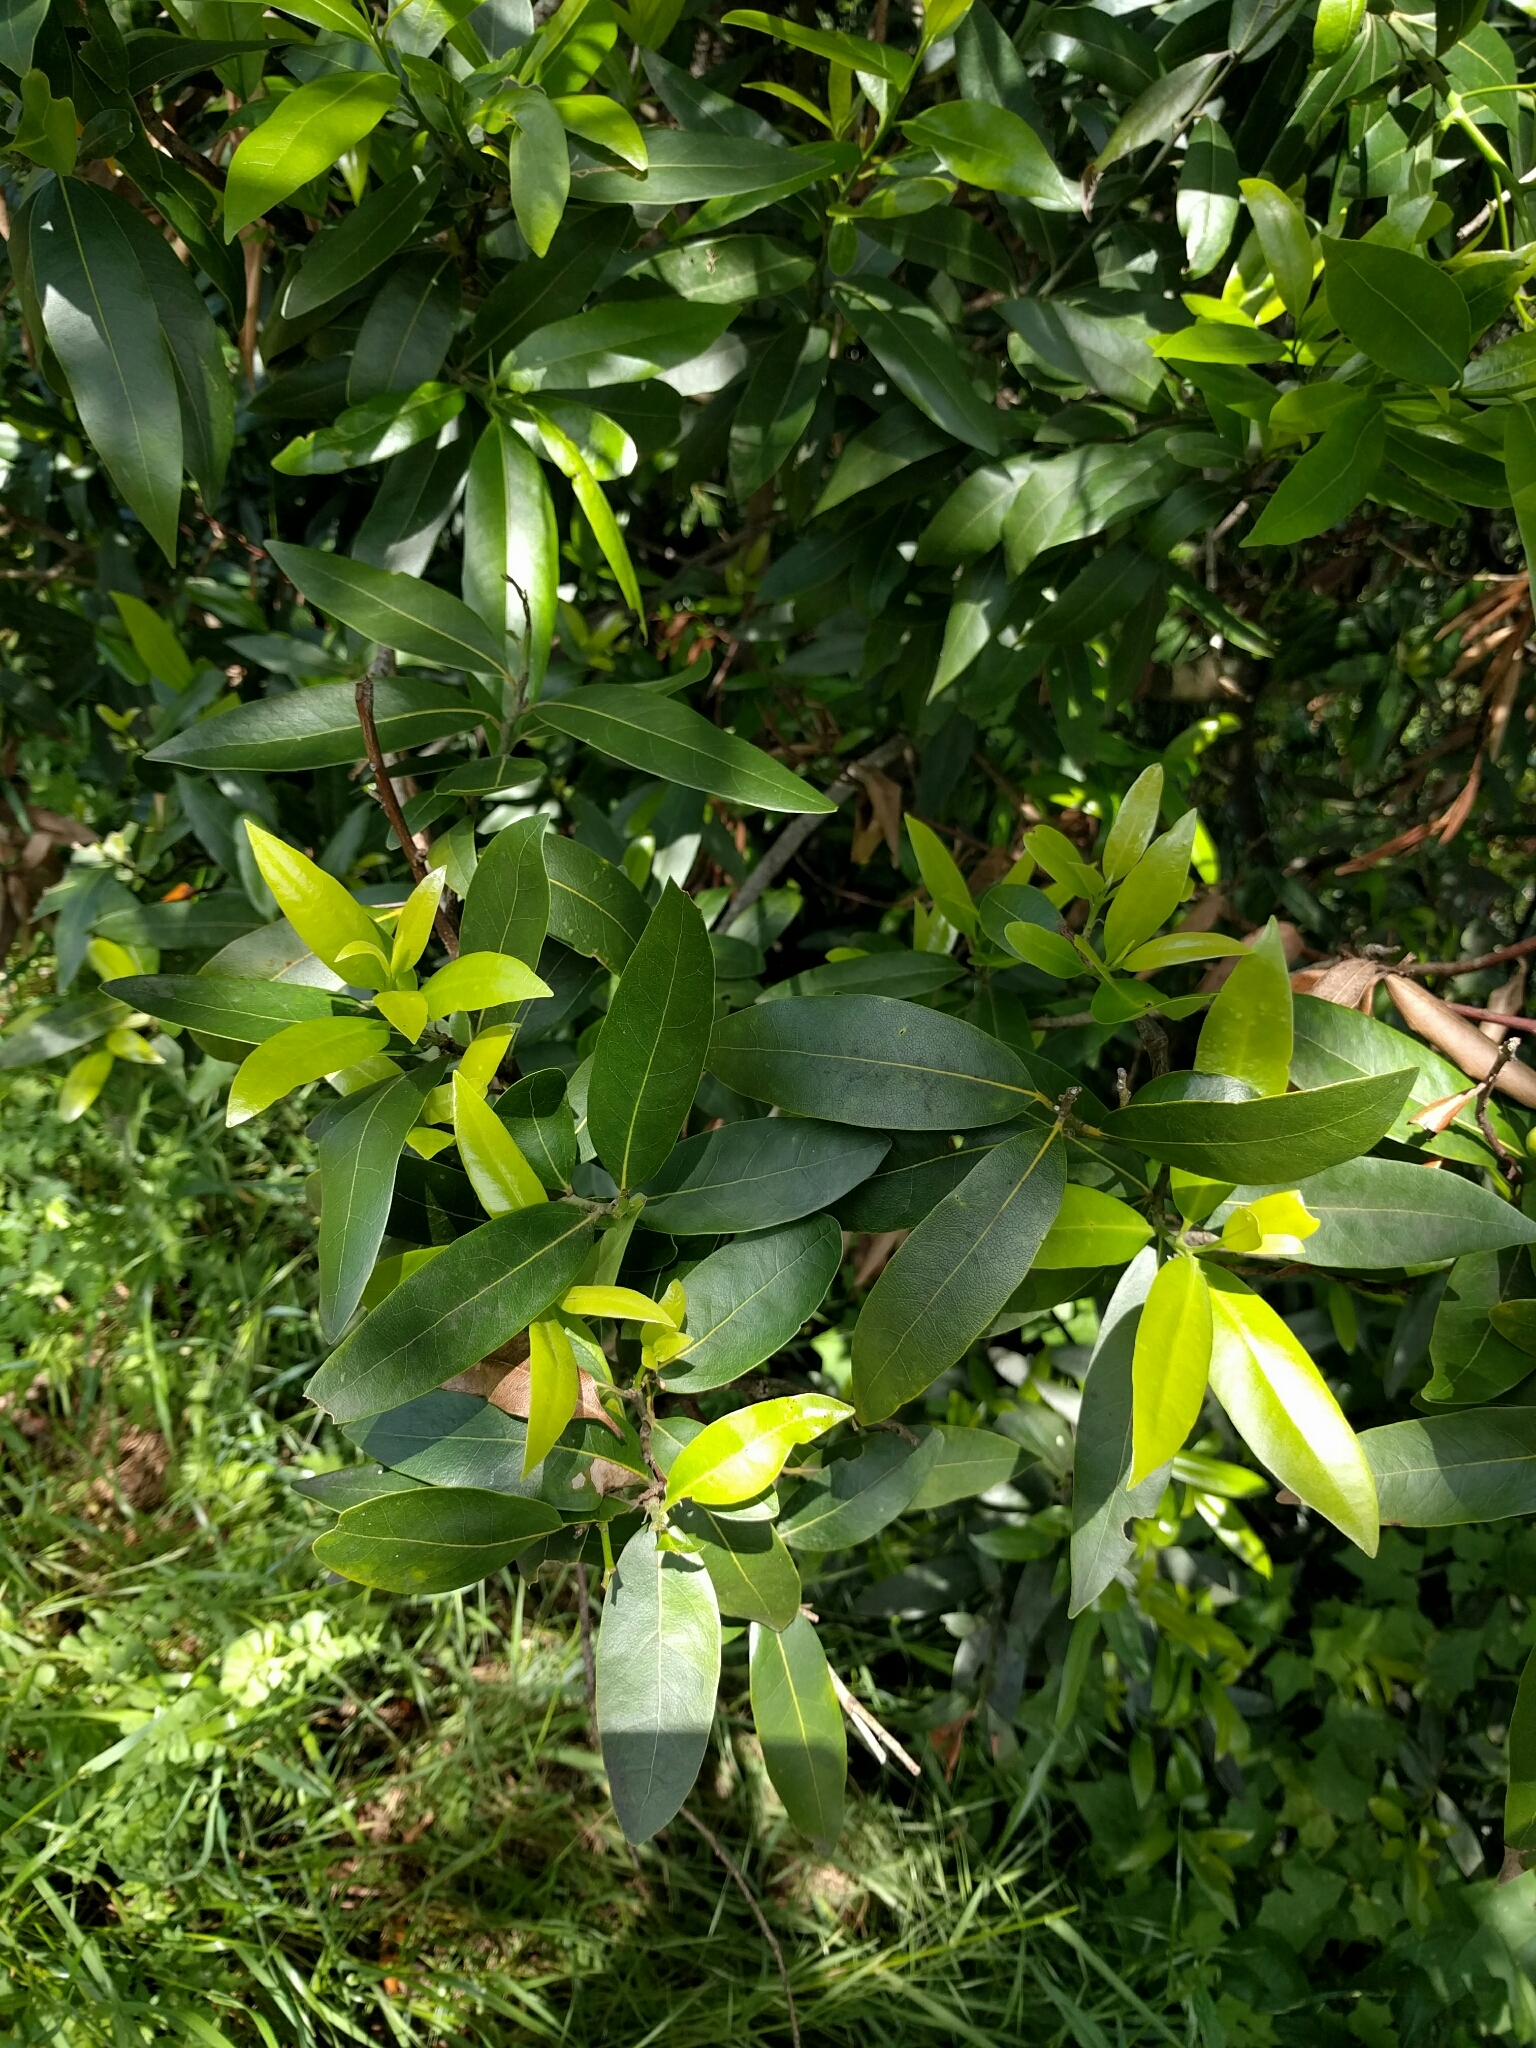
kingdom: Plantae
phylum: Tracheophyta
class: Magnoliopsida
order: Laurales
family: Lauraceae
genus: Umbellularia
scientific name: Umbellularia californica
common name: California bay
